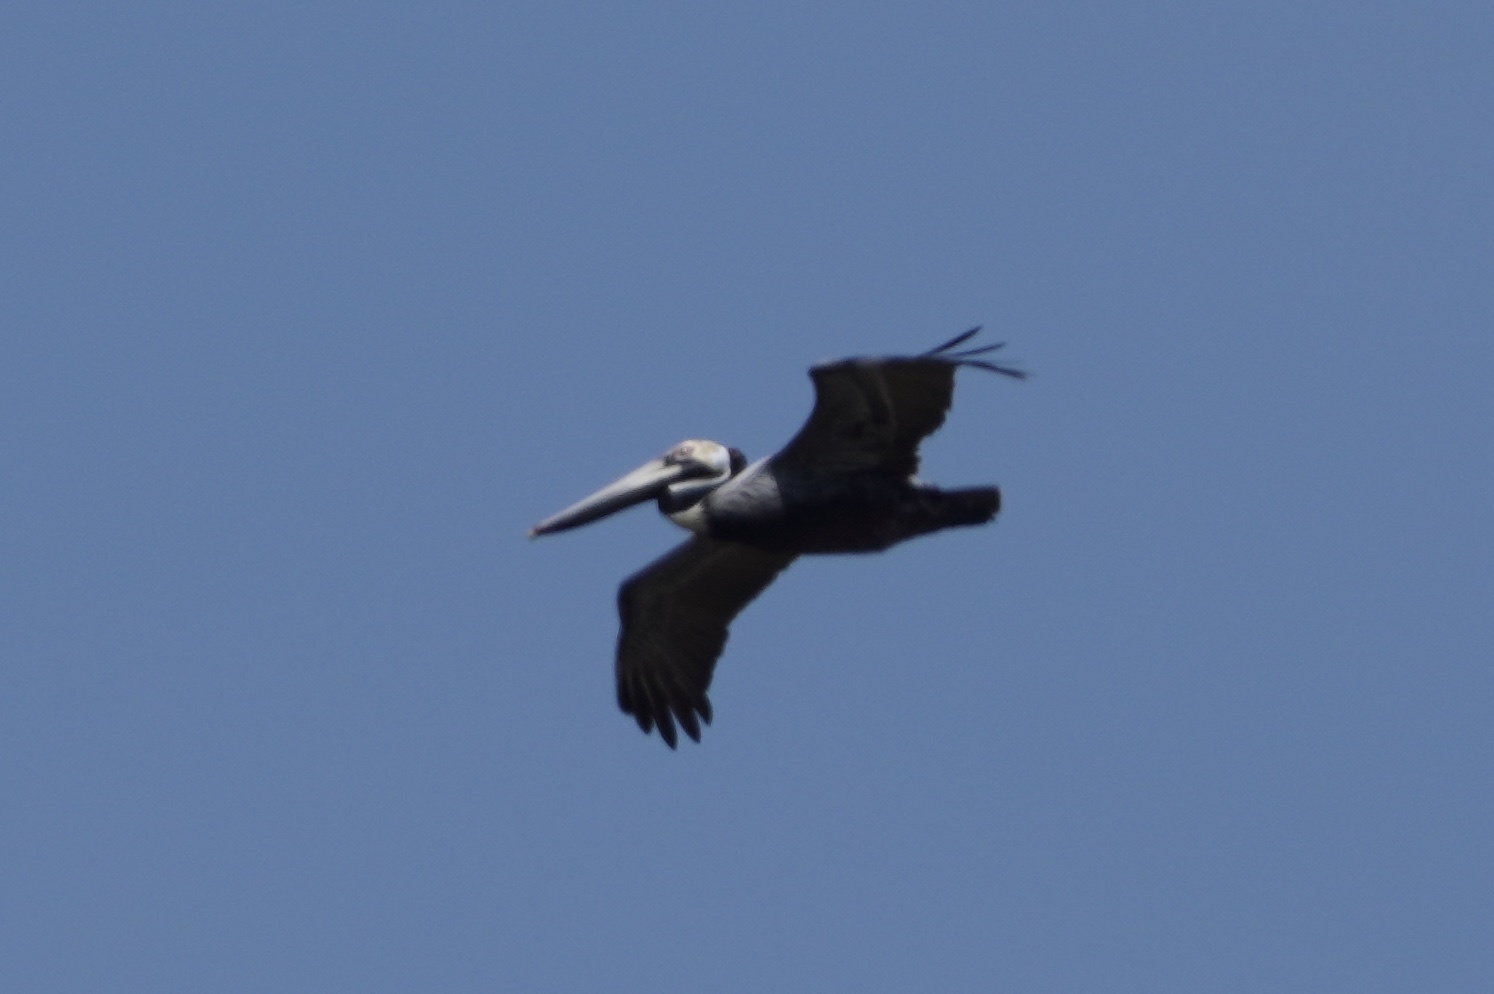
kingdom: Animalia
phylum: Chordata
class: Aves
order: Pelecaniformes
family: Pelecanidae
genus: Pelecanus
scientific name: Pelecanus occidentalis
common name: Brown pelican
